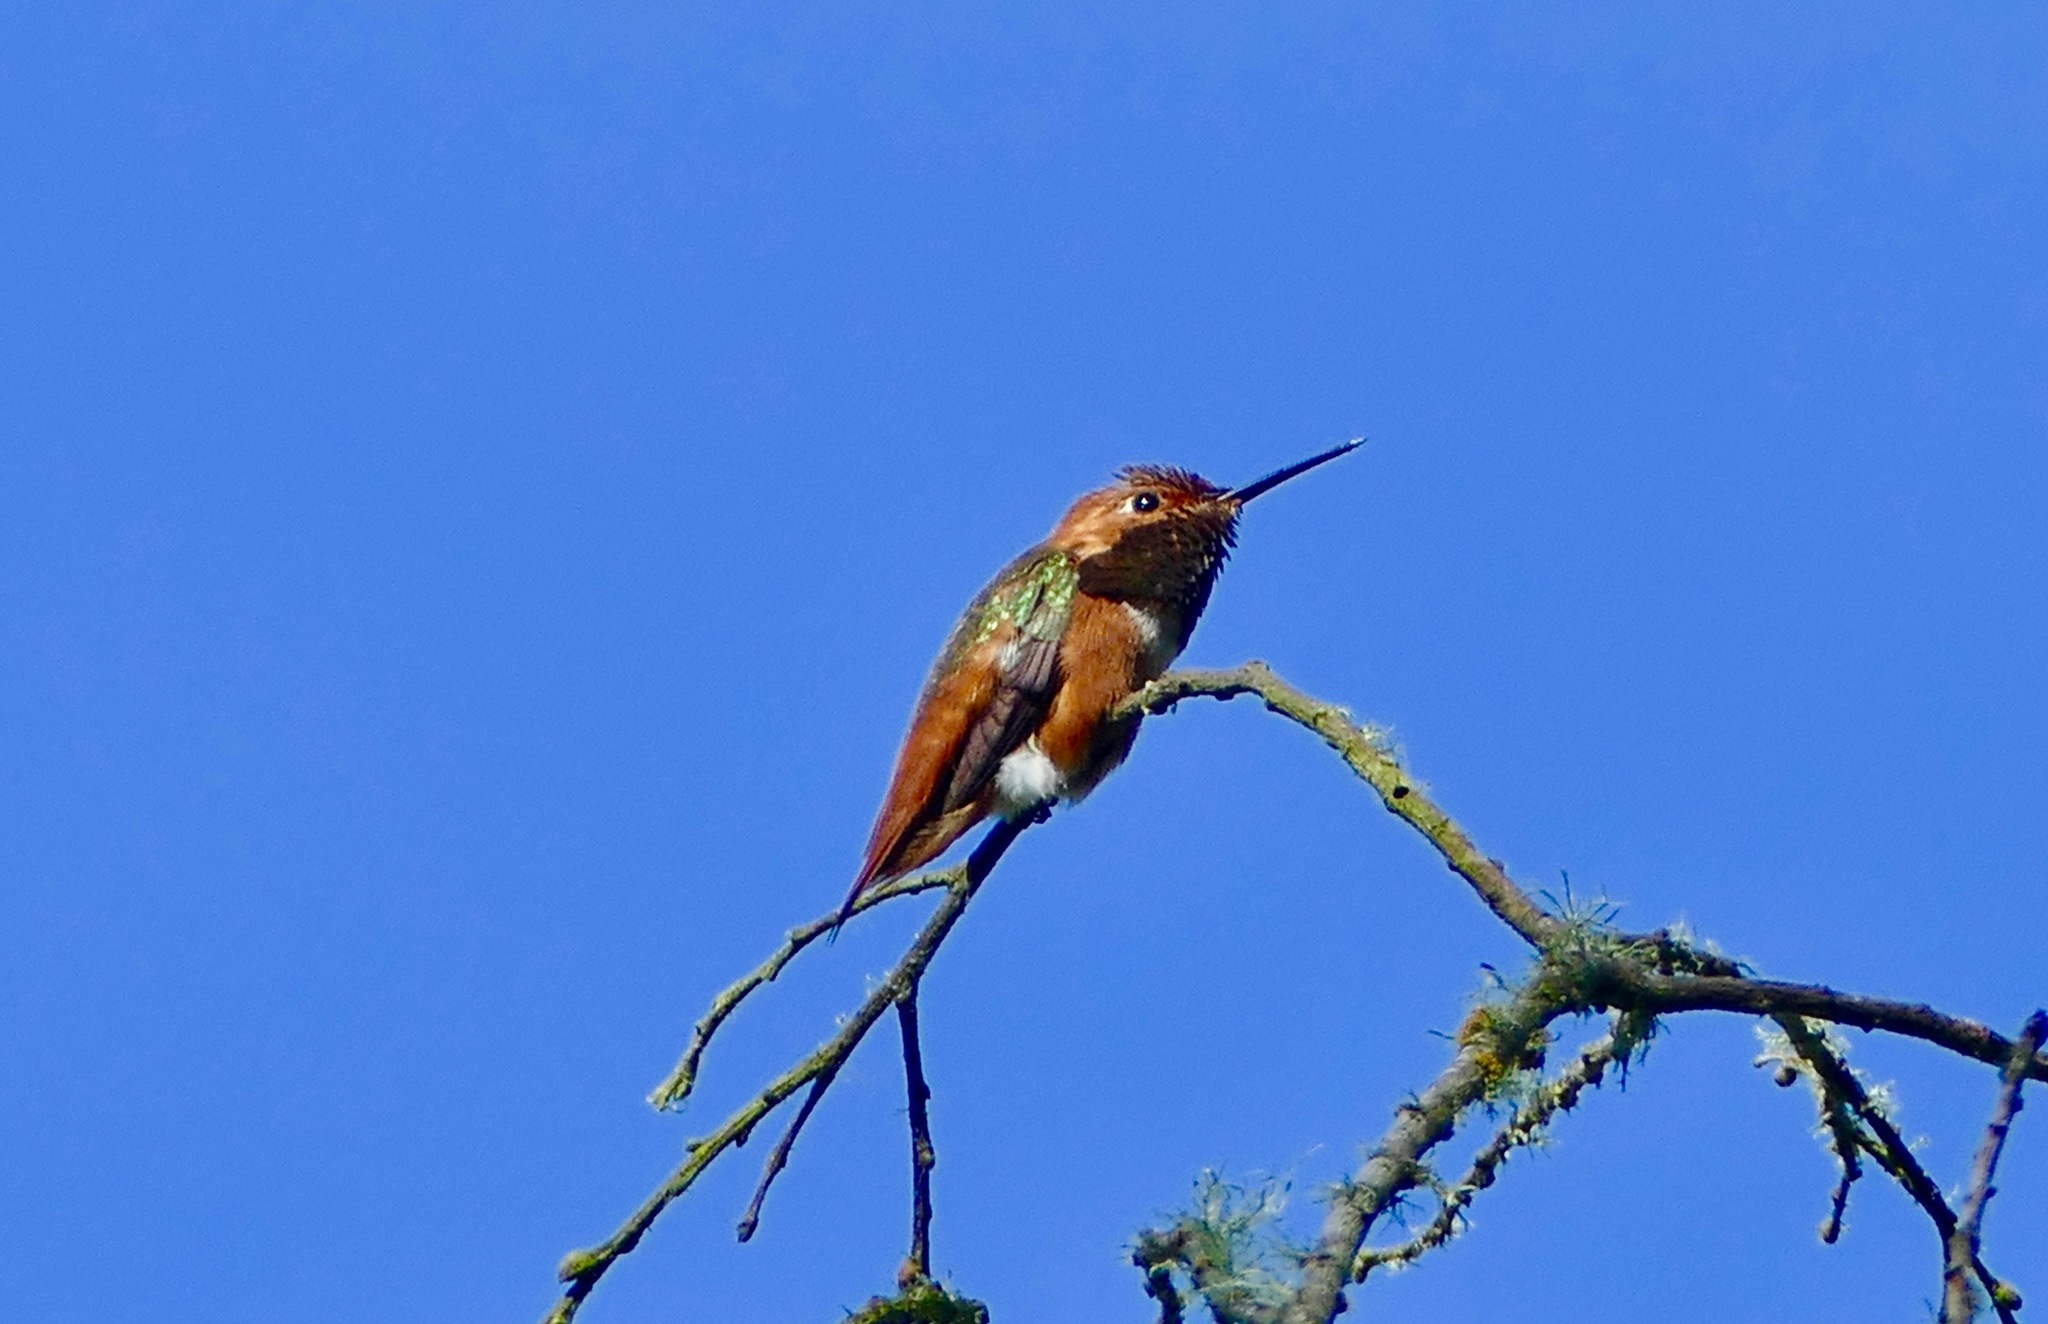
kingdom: Animalia
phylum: Chordata
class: Aves
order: Apodiformes
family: Trochilidae
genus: Selasphorus
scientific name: Selasphorus sasin
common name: Allen's hummingbird
